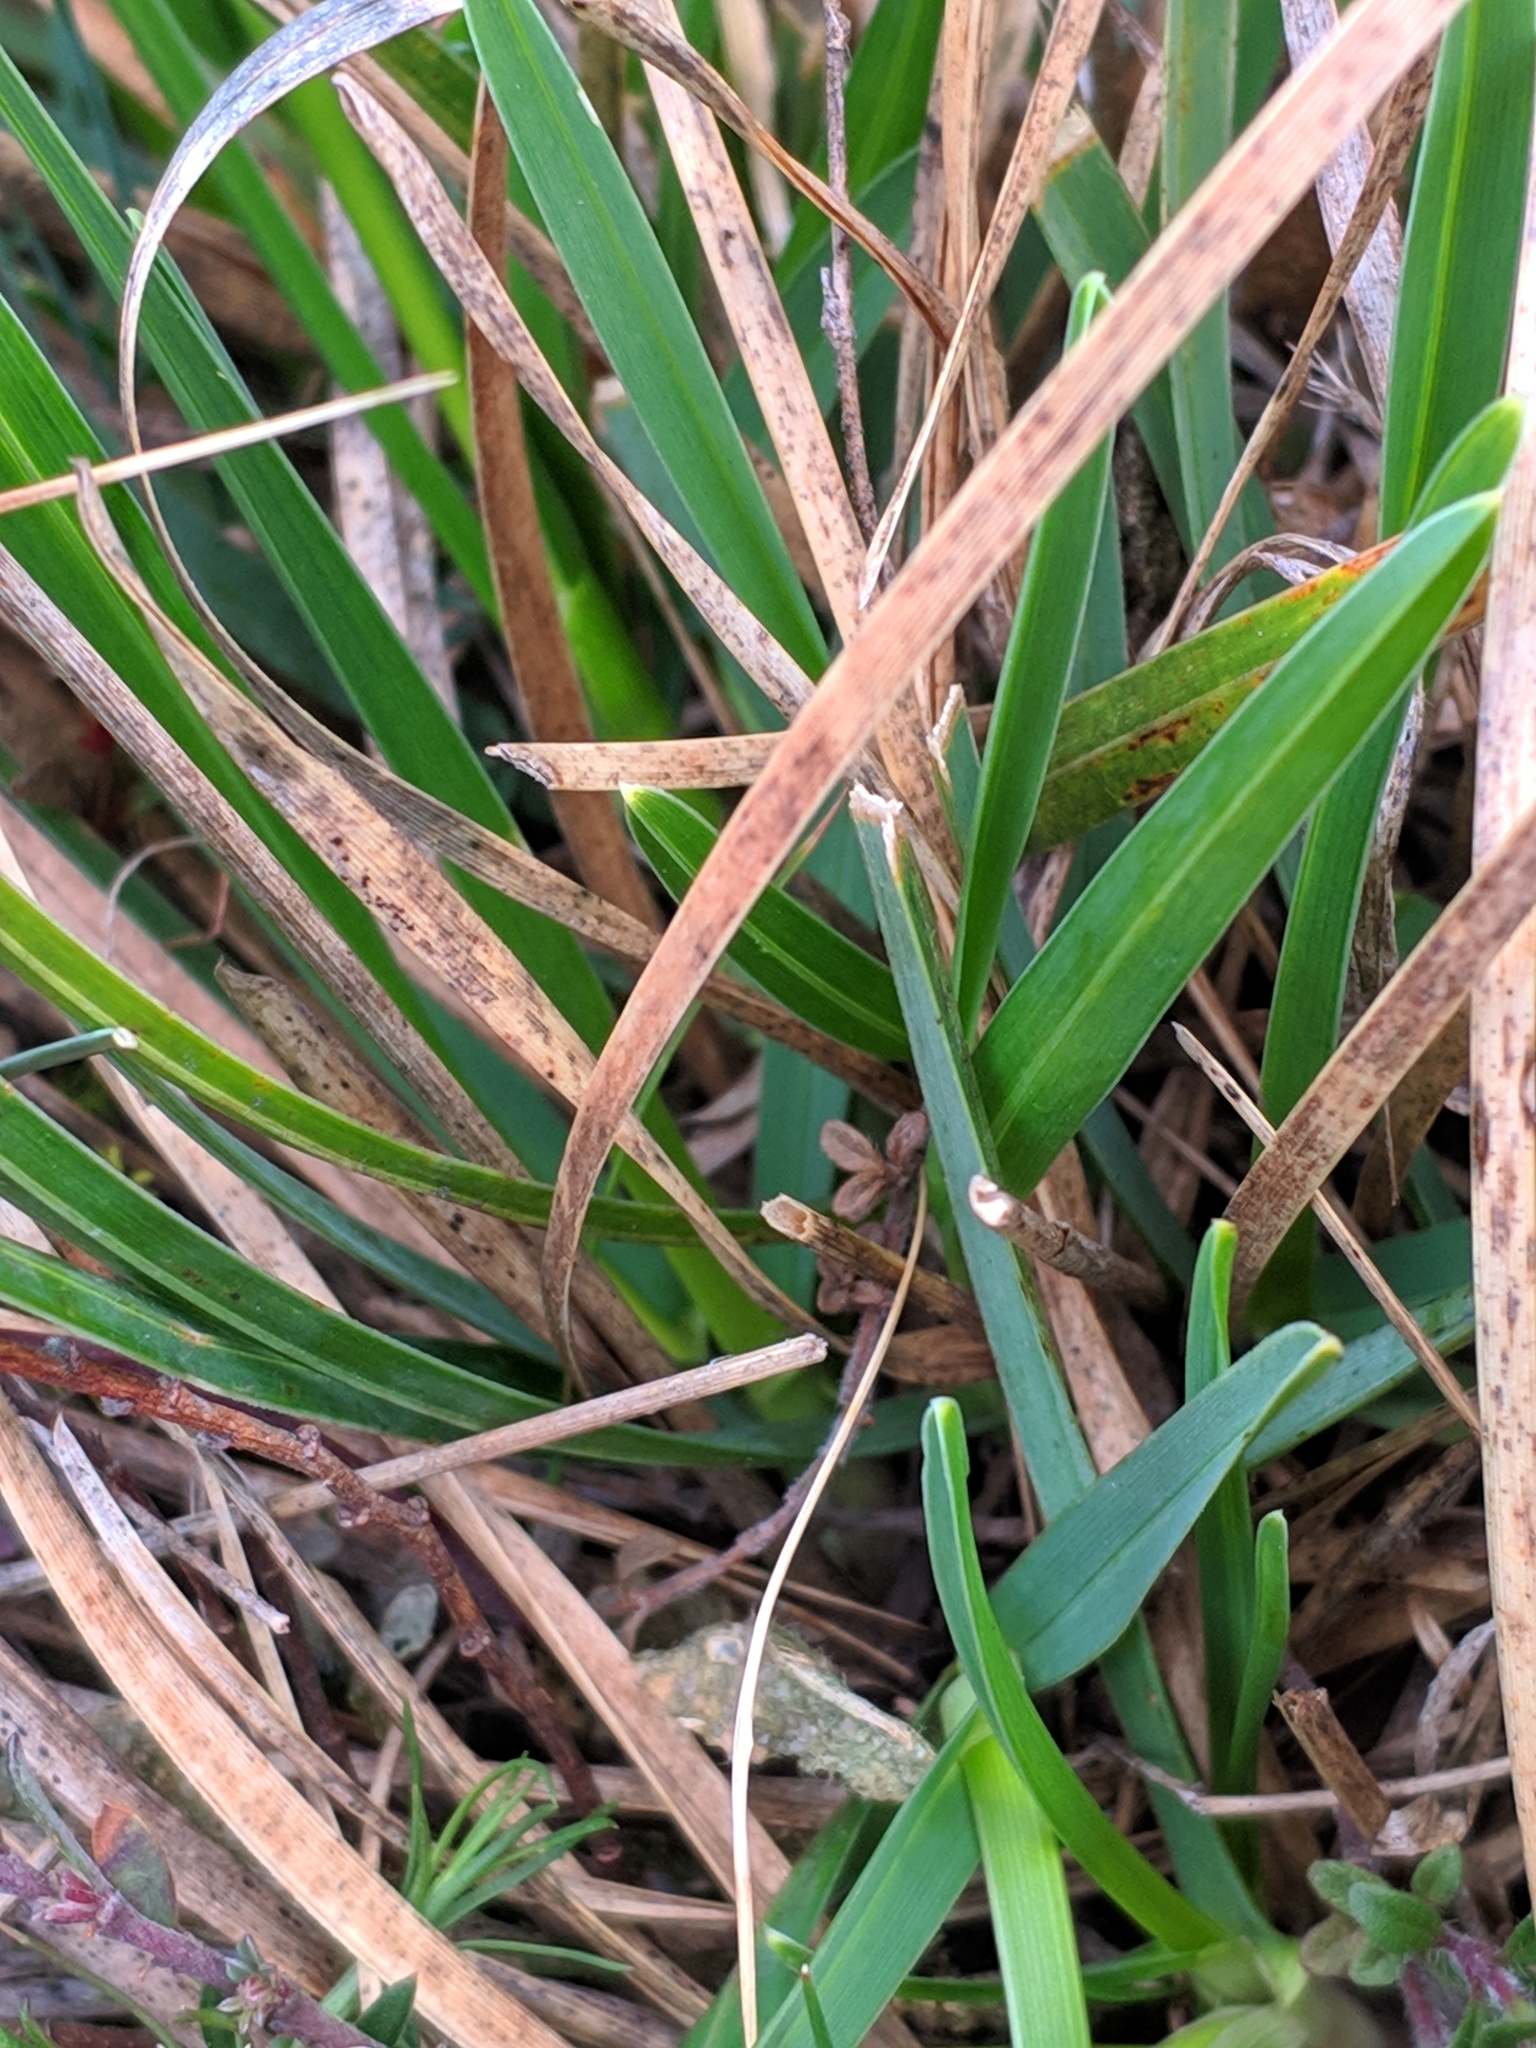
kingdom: Plantae
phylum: Tracheophyta
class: Liliopsida
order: Poales
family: Poaceae
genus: Sesleria
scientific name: Sesleria caerulea
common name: Blue moor-grass
